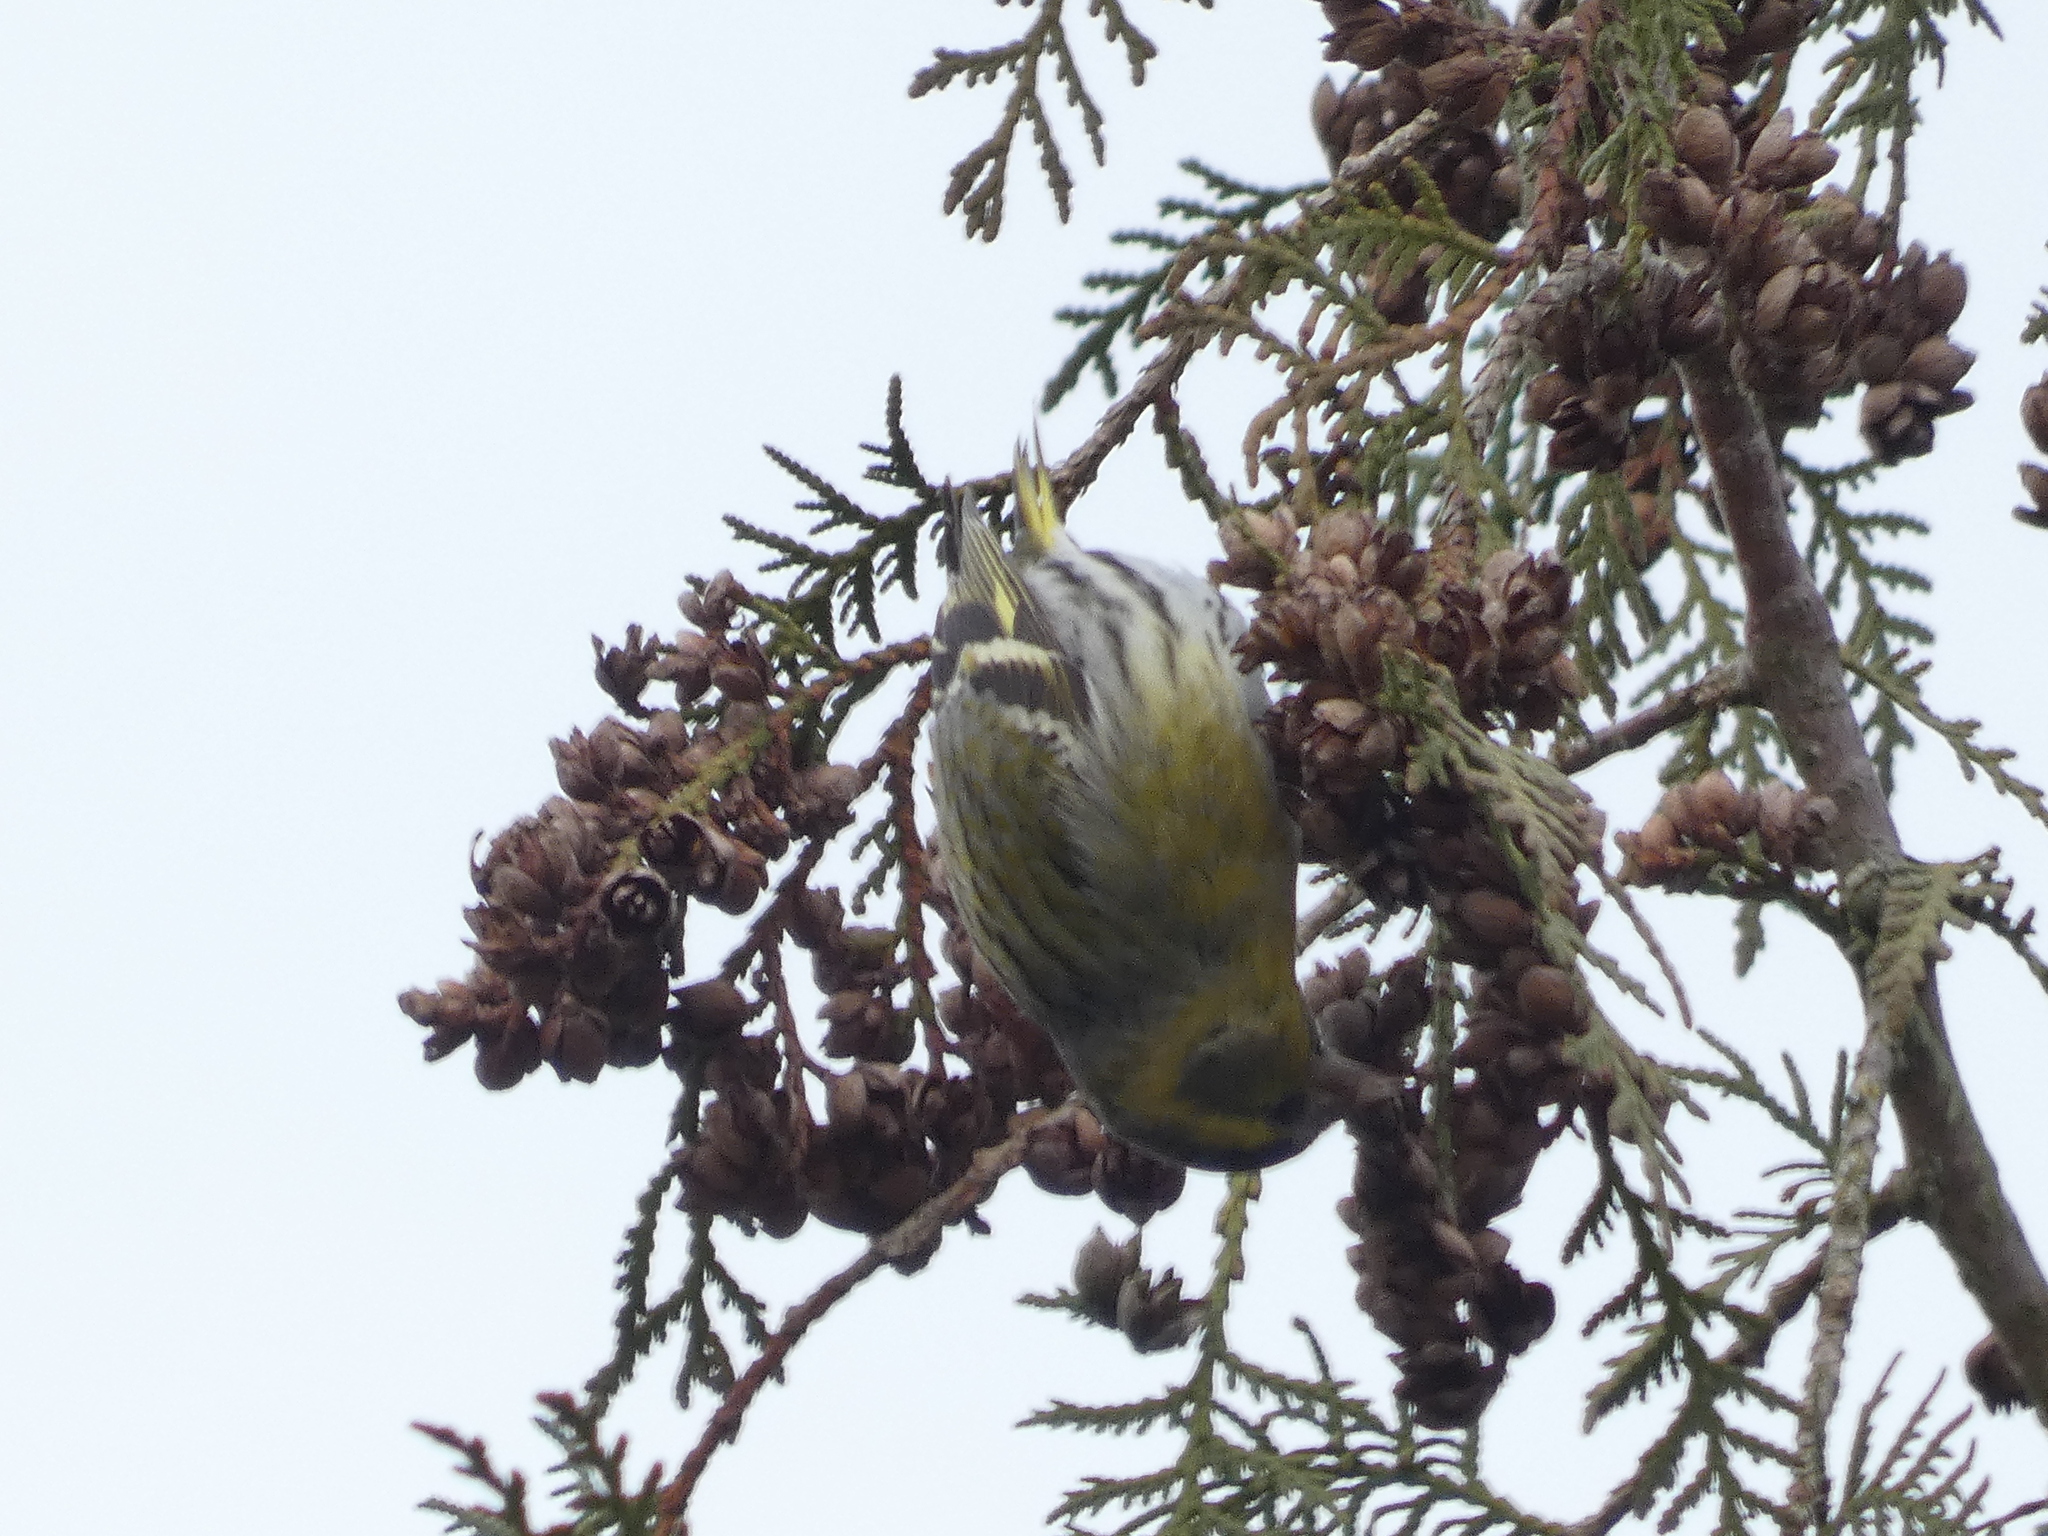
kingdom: Animalia
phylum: Chordata
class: Aves
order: Passeriformes
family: Fringillidae
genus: Spinus
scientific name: Spinus spinus
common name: Eurasian siskin
